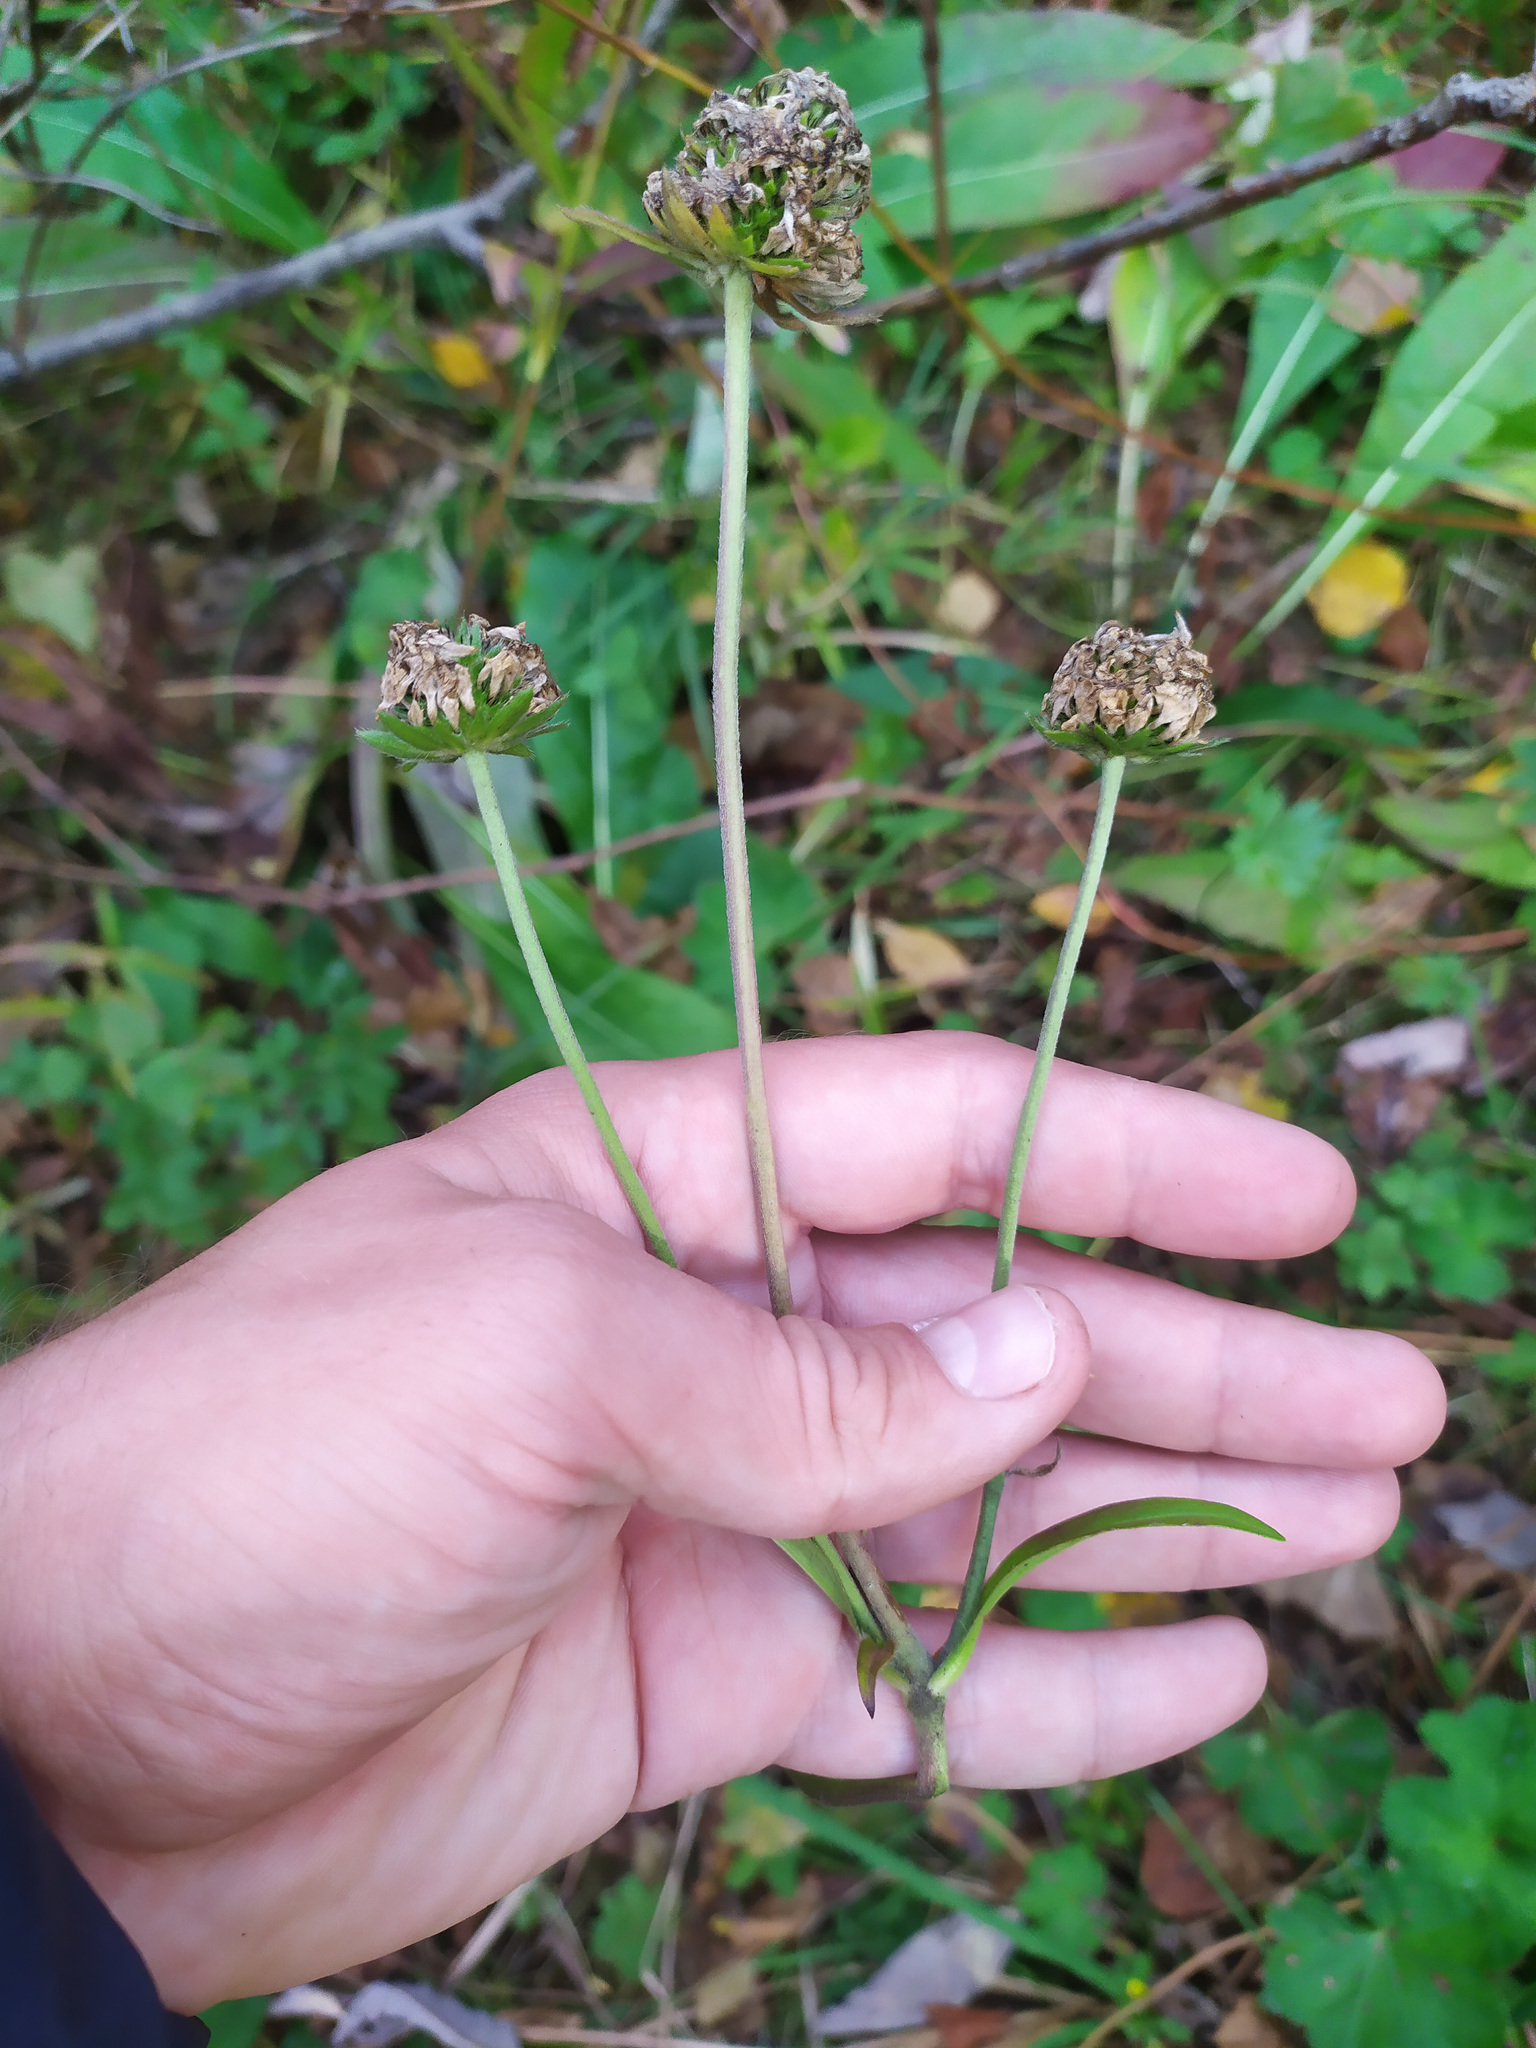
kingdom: Plantae
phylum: Tracheophyta
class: Magnoliopsida
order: Dipsacales
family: Caprifoliaceae
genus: Succisa
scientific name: Succisa pratensis
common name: Devil's-bit
